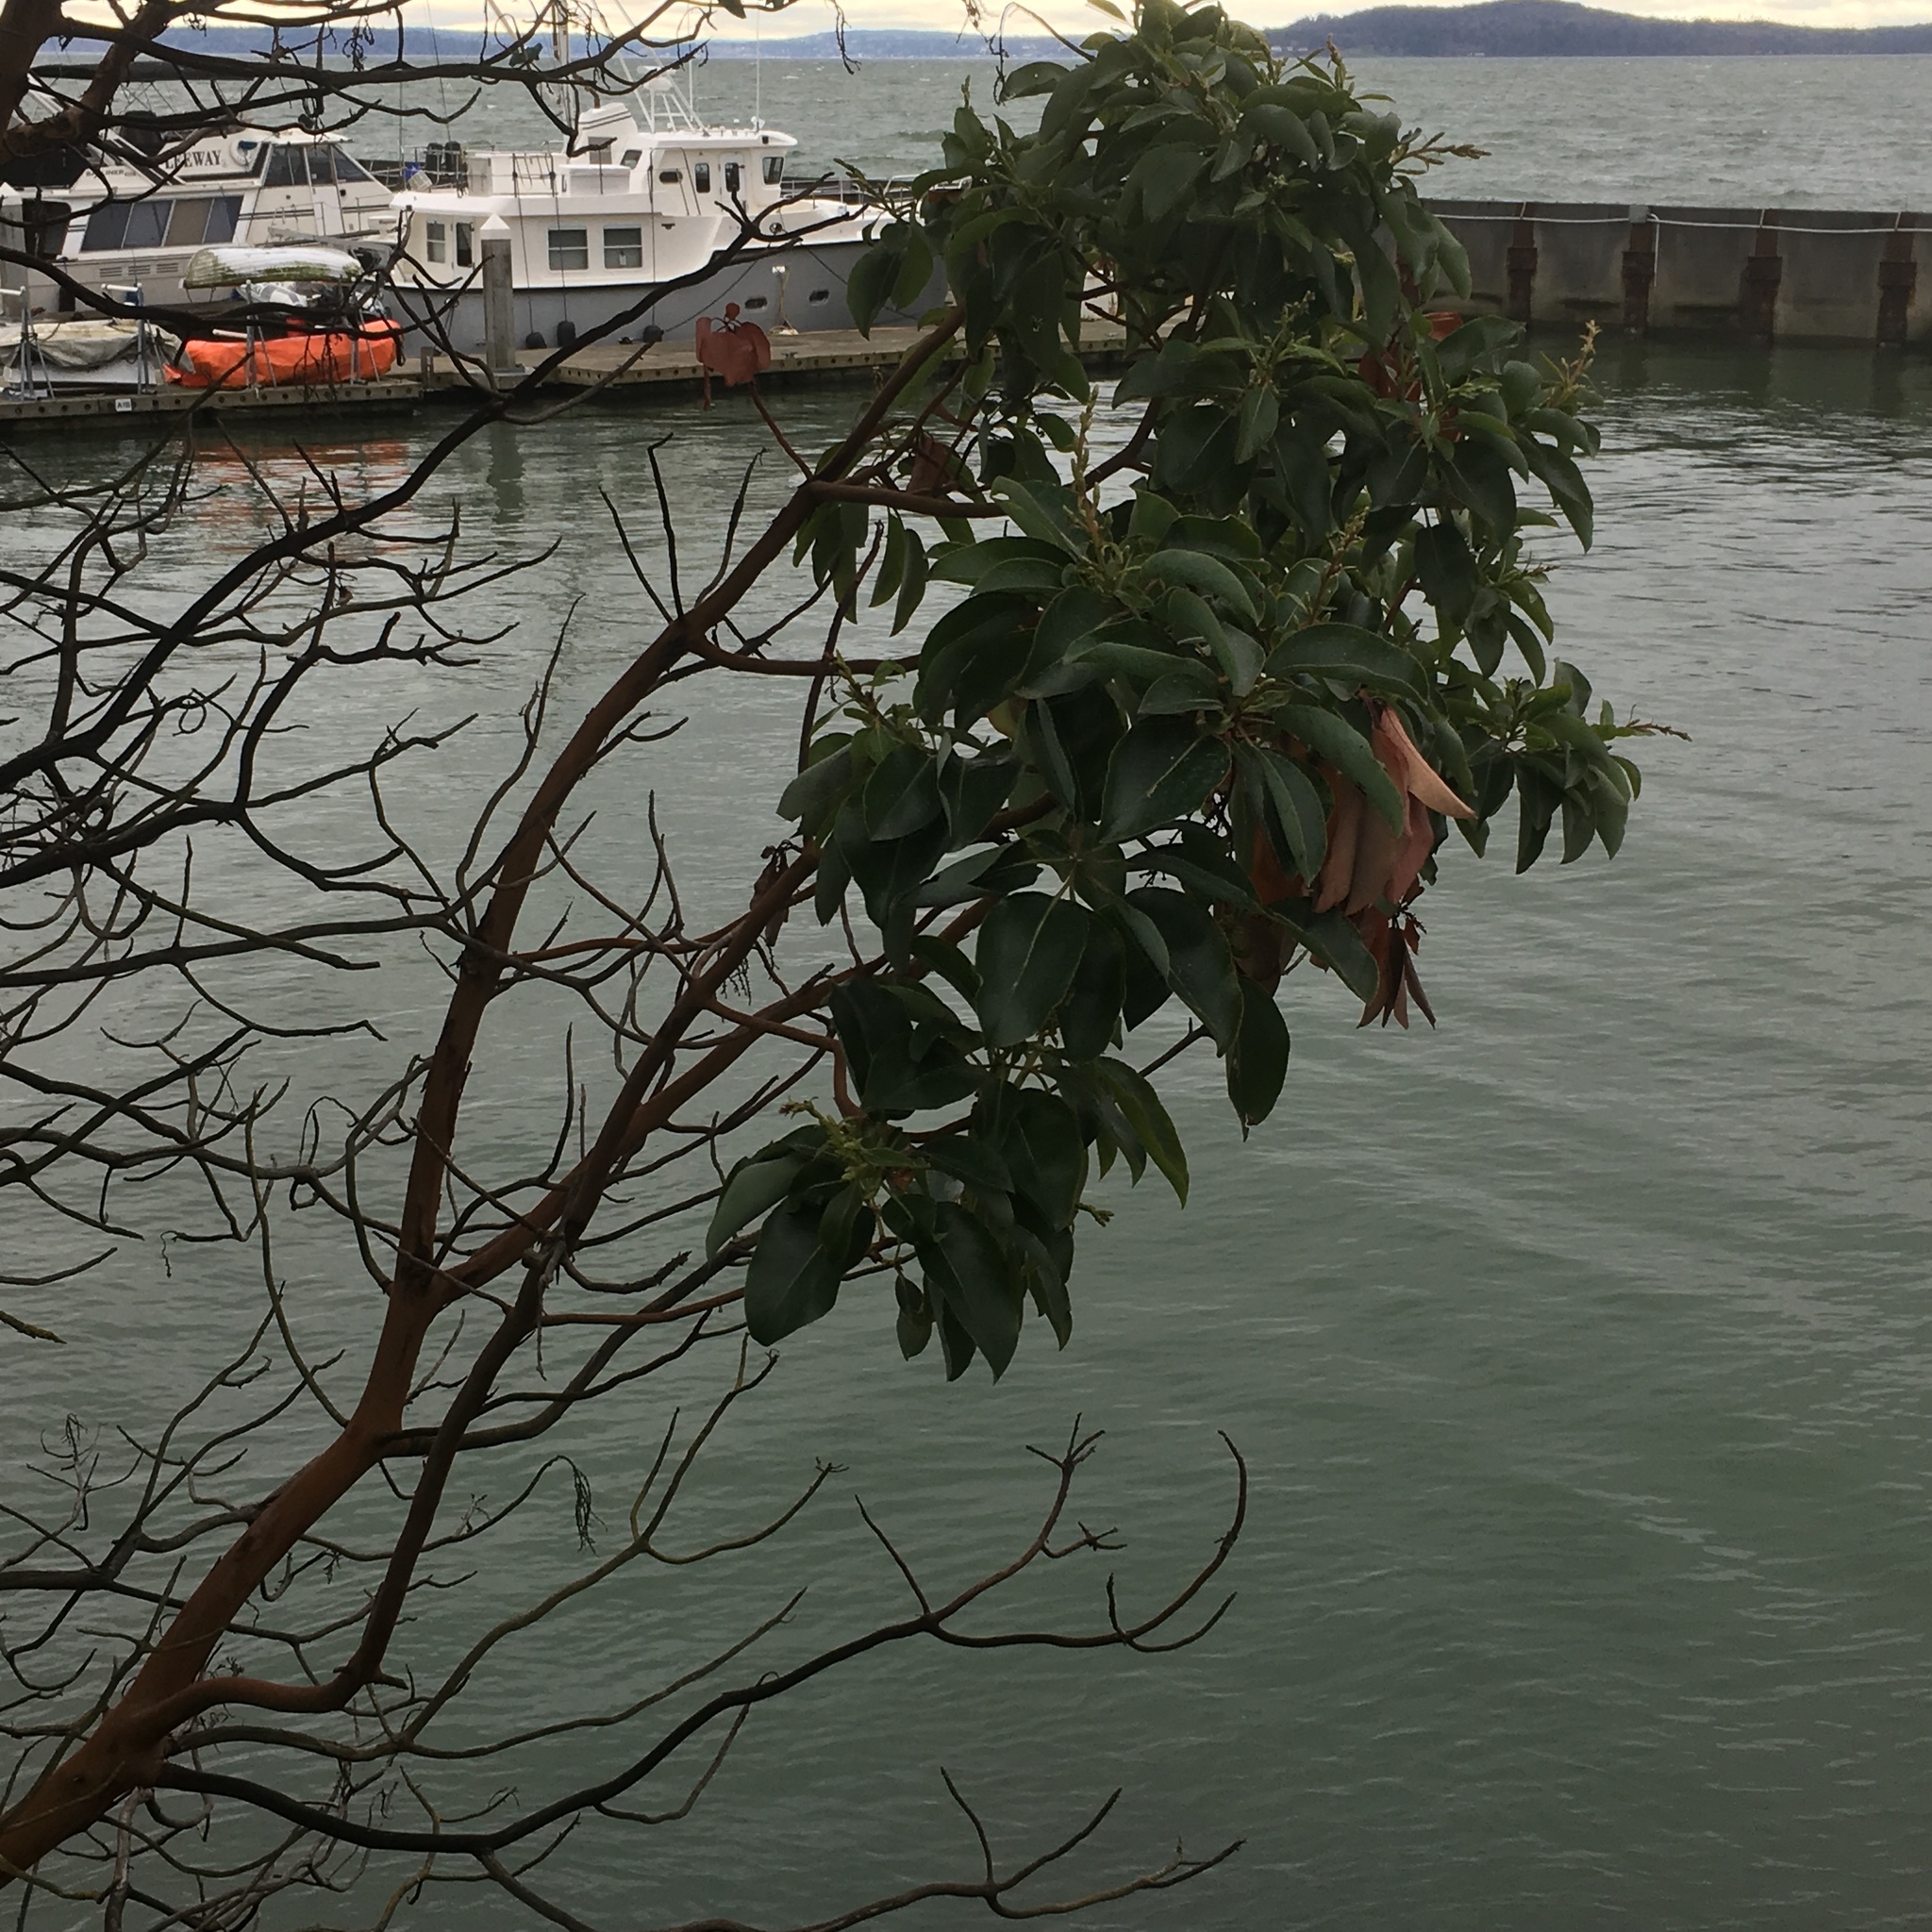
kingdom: Plantae
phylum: Tracheophyta
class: Magnoliopsida
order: Ericales
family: Ericaceae
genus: Arbutus
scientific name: Arbutus menziesii
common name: Pacific madrone
